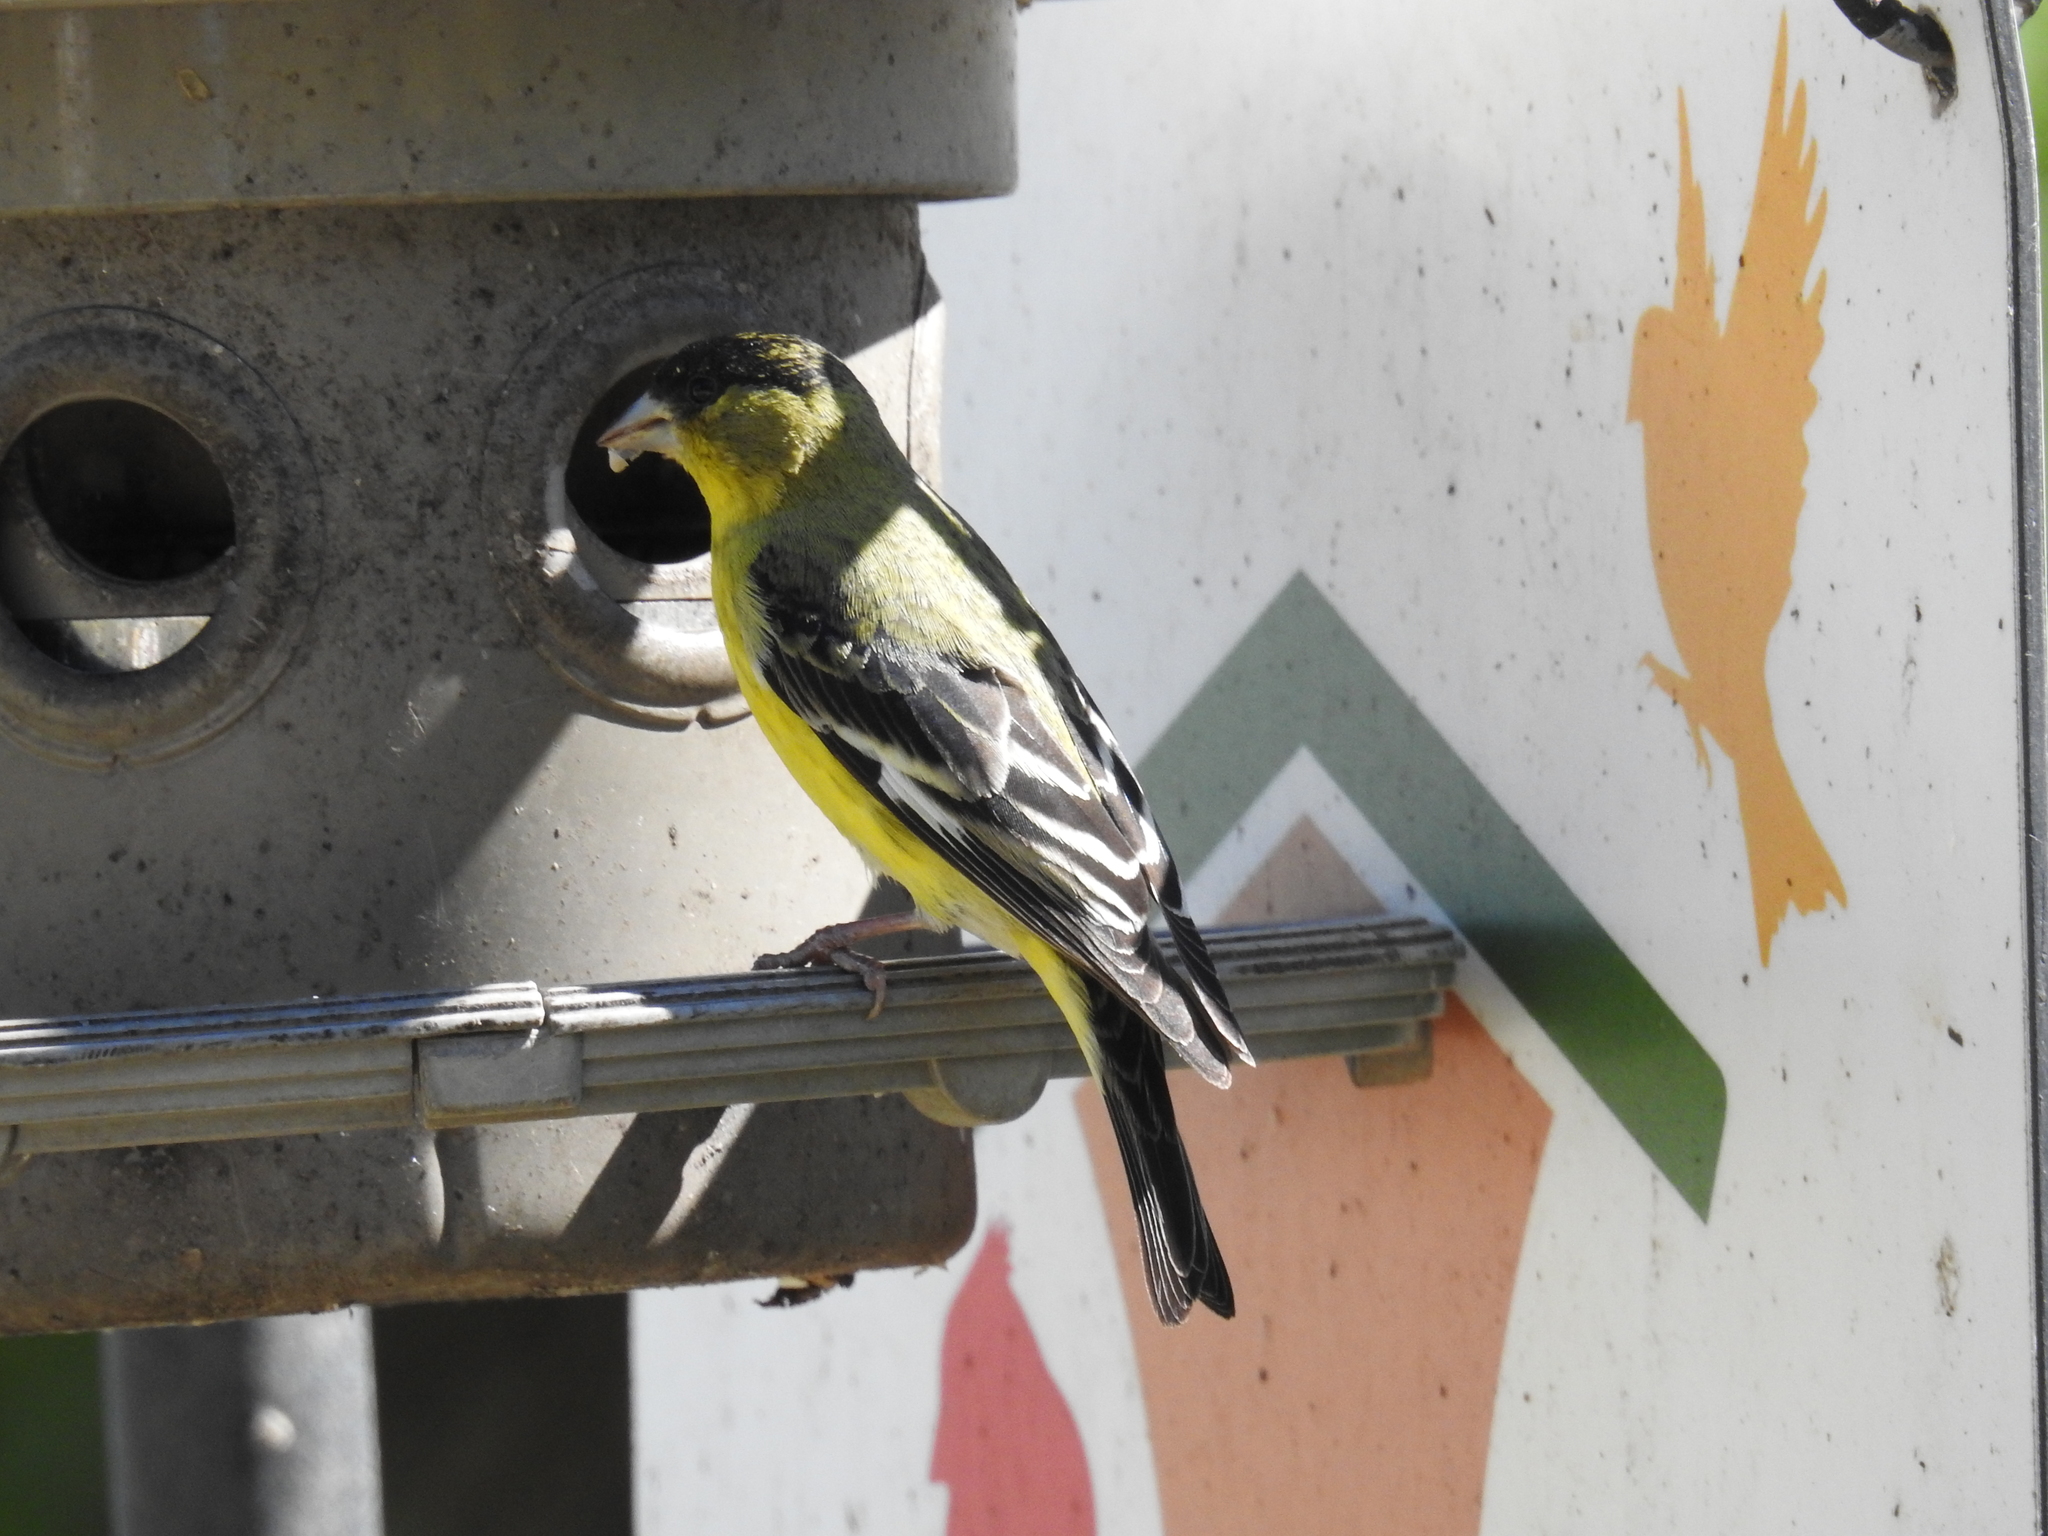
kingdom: Animalia
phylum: Chordata
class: Aves
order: Passeriformes
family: Fringillidae
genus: Spinus
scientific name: Spinus psaltria
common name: Lesser goldfinch
